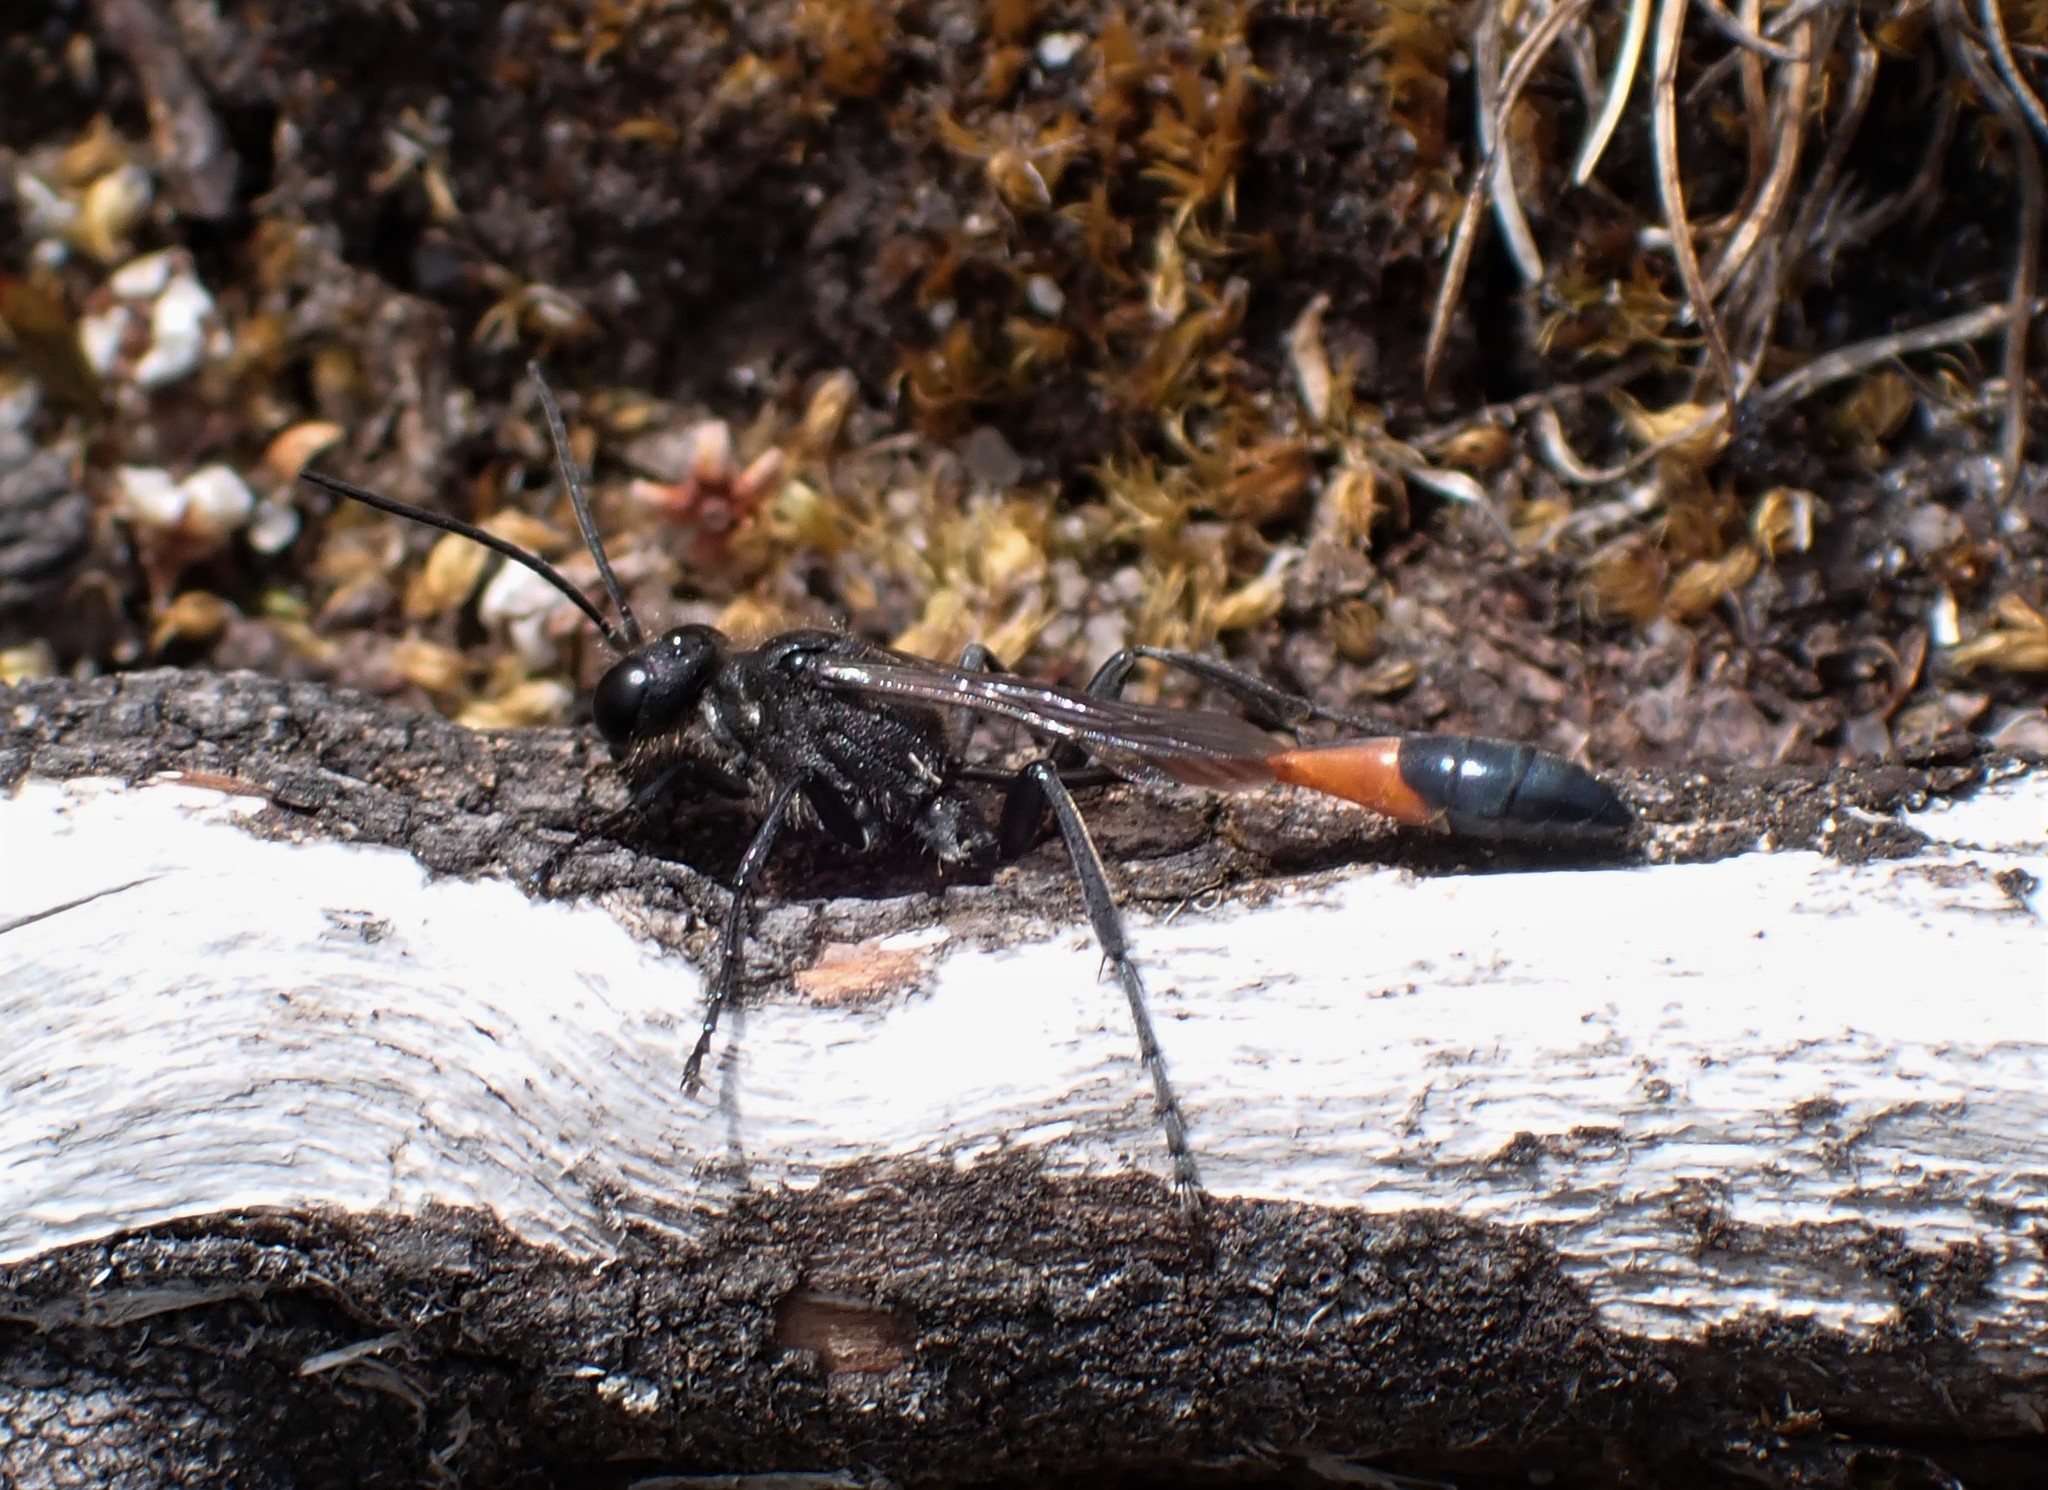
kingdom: Animalia
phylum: Arthropoda
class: Insecta
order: Hymenoptera
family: Sphecidae
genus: Ammophila
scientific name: Ammophila sabulosa
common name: Red banded sand wasp
